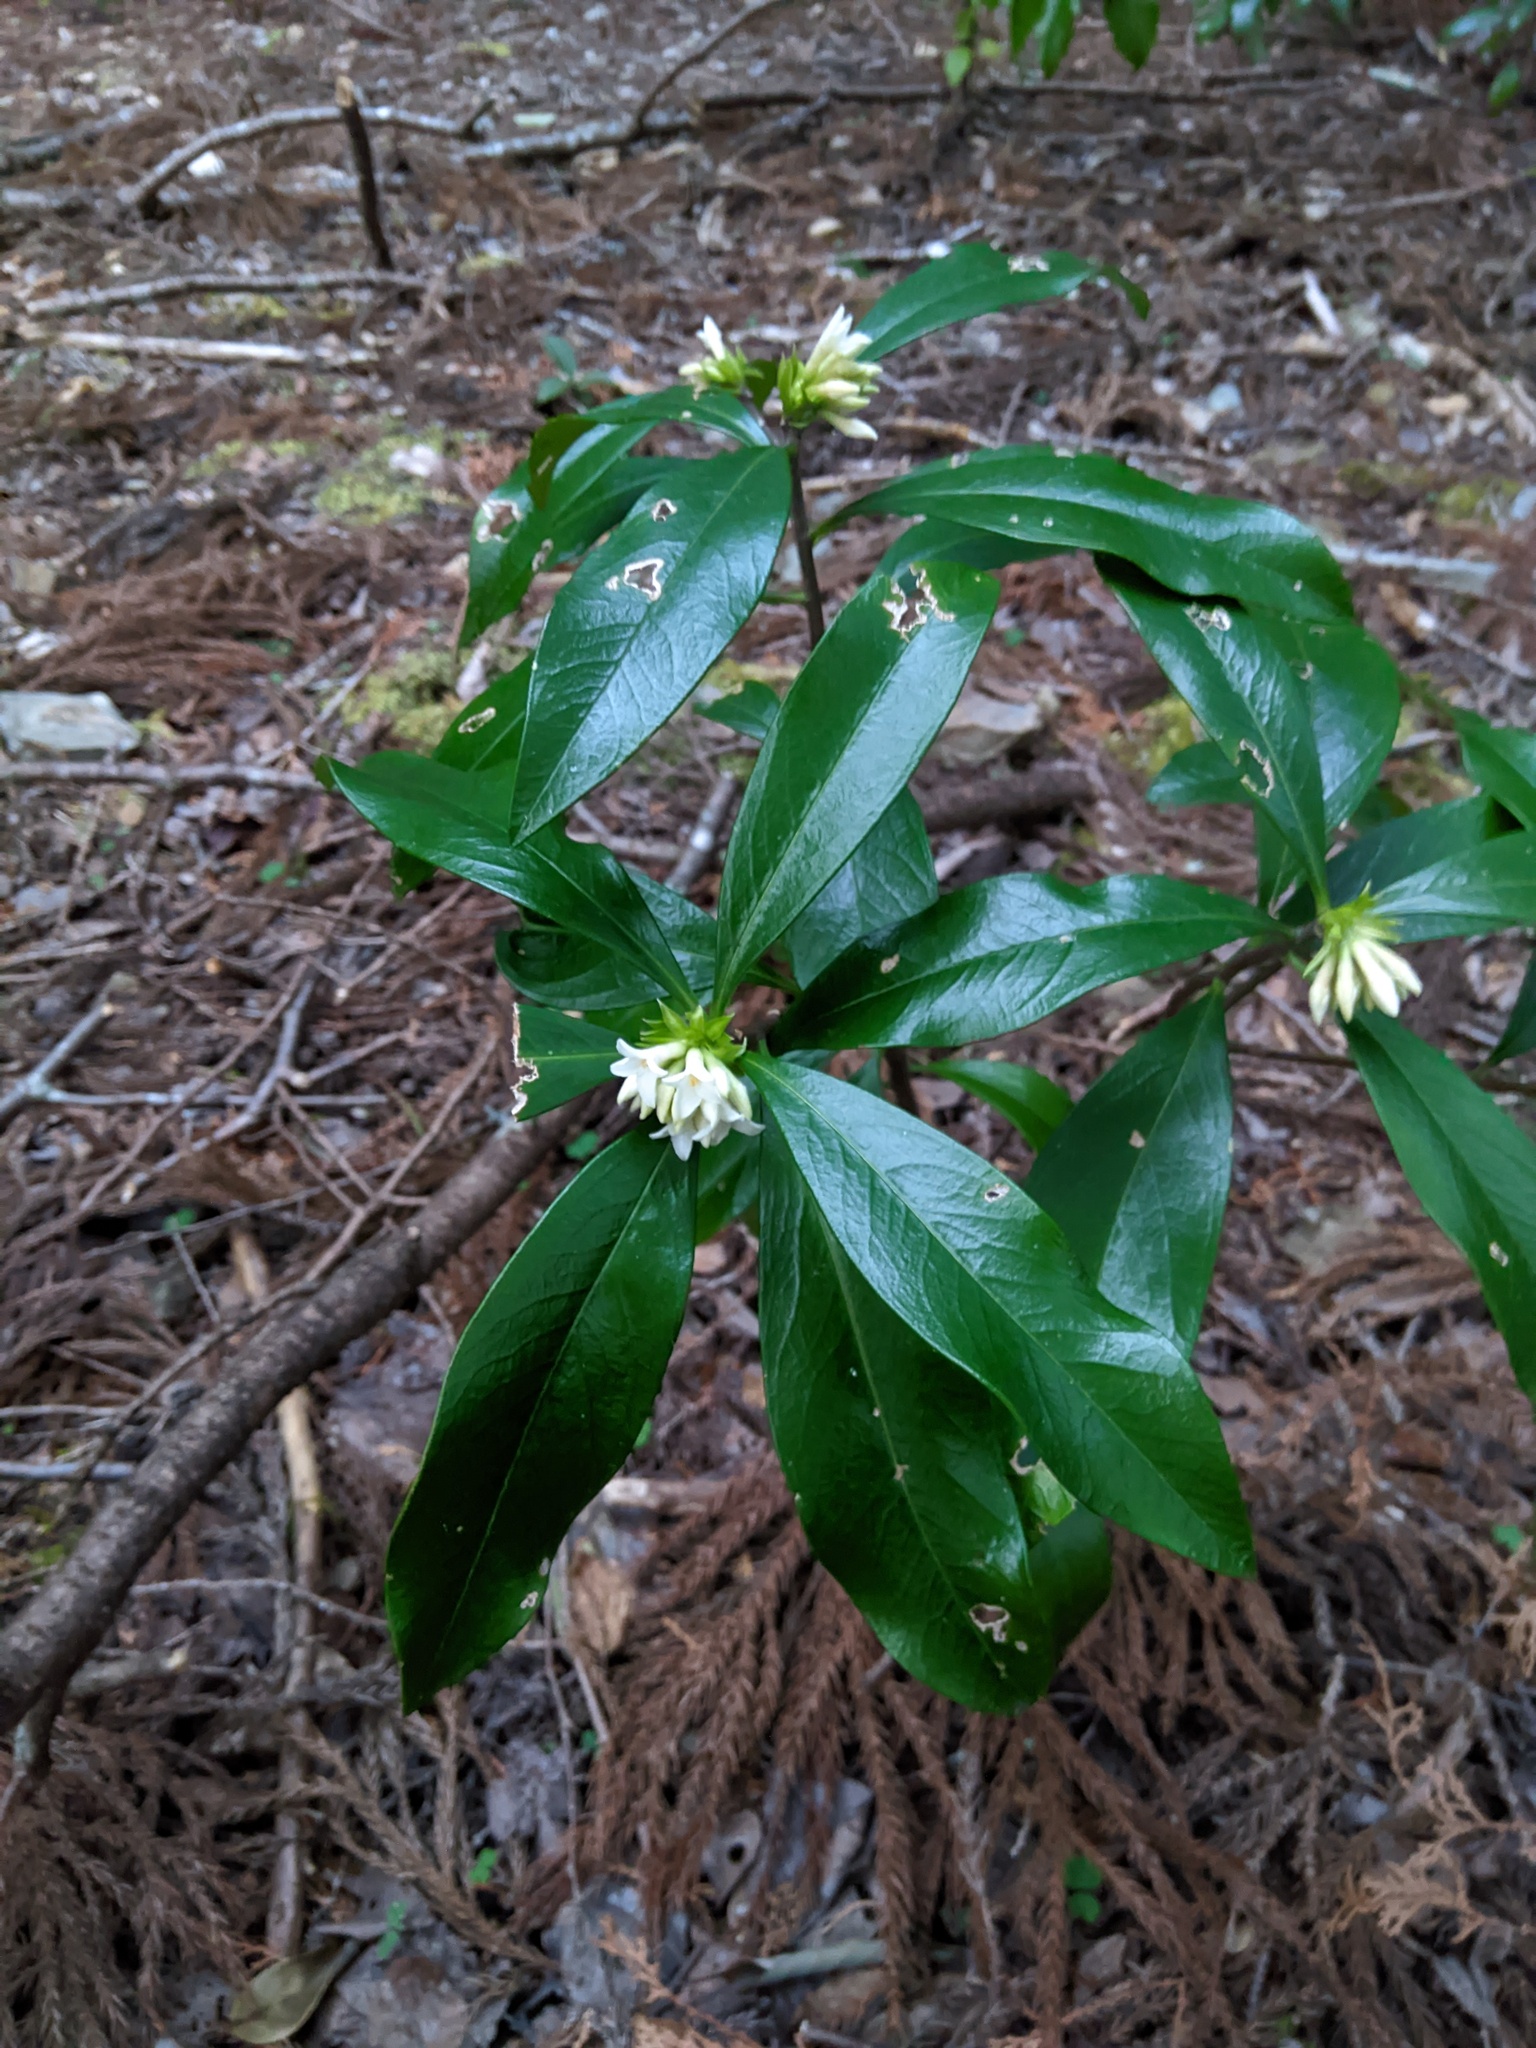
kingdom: Plantae
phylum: Tracheophyta
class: Magnoliopsida
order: Malvales
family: Thymelaeaceae
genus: Daphne
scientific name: Daphne kiusiana
